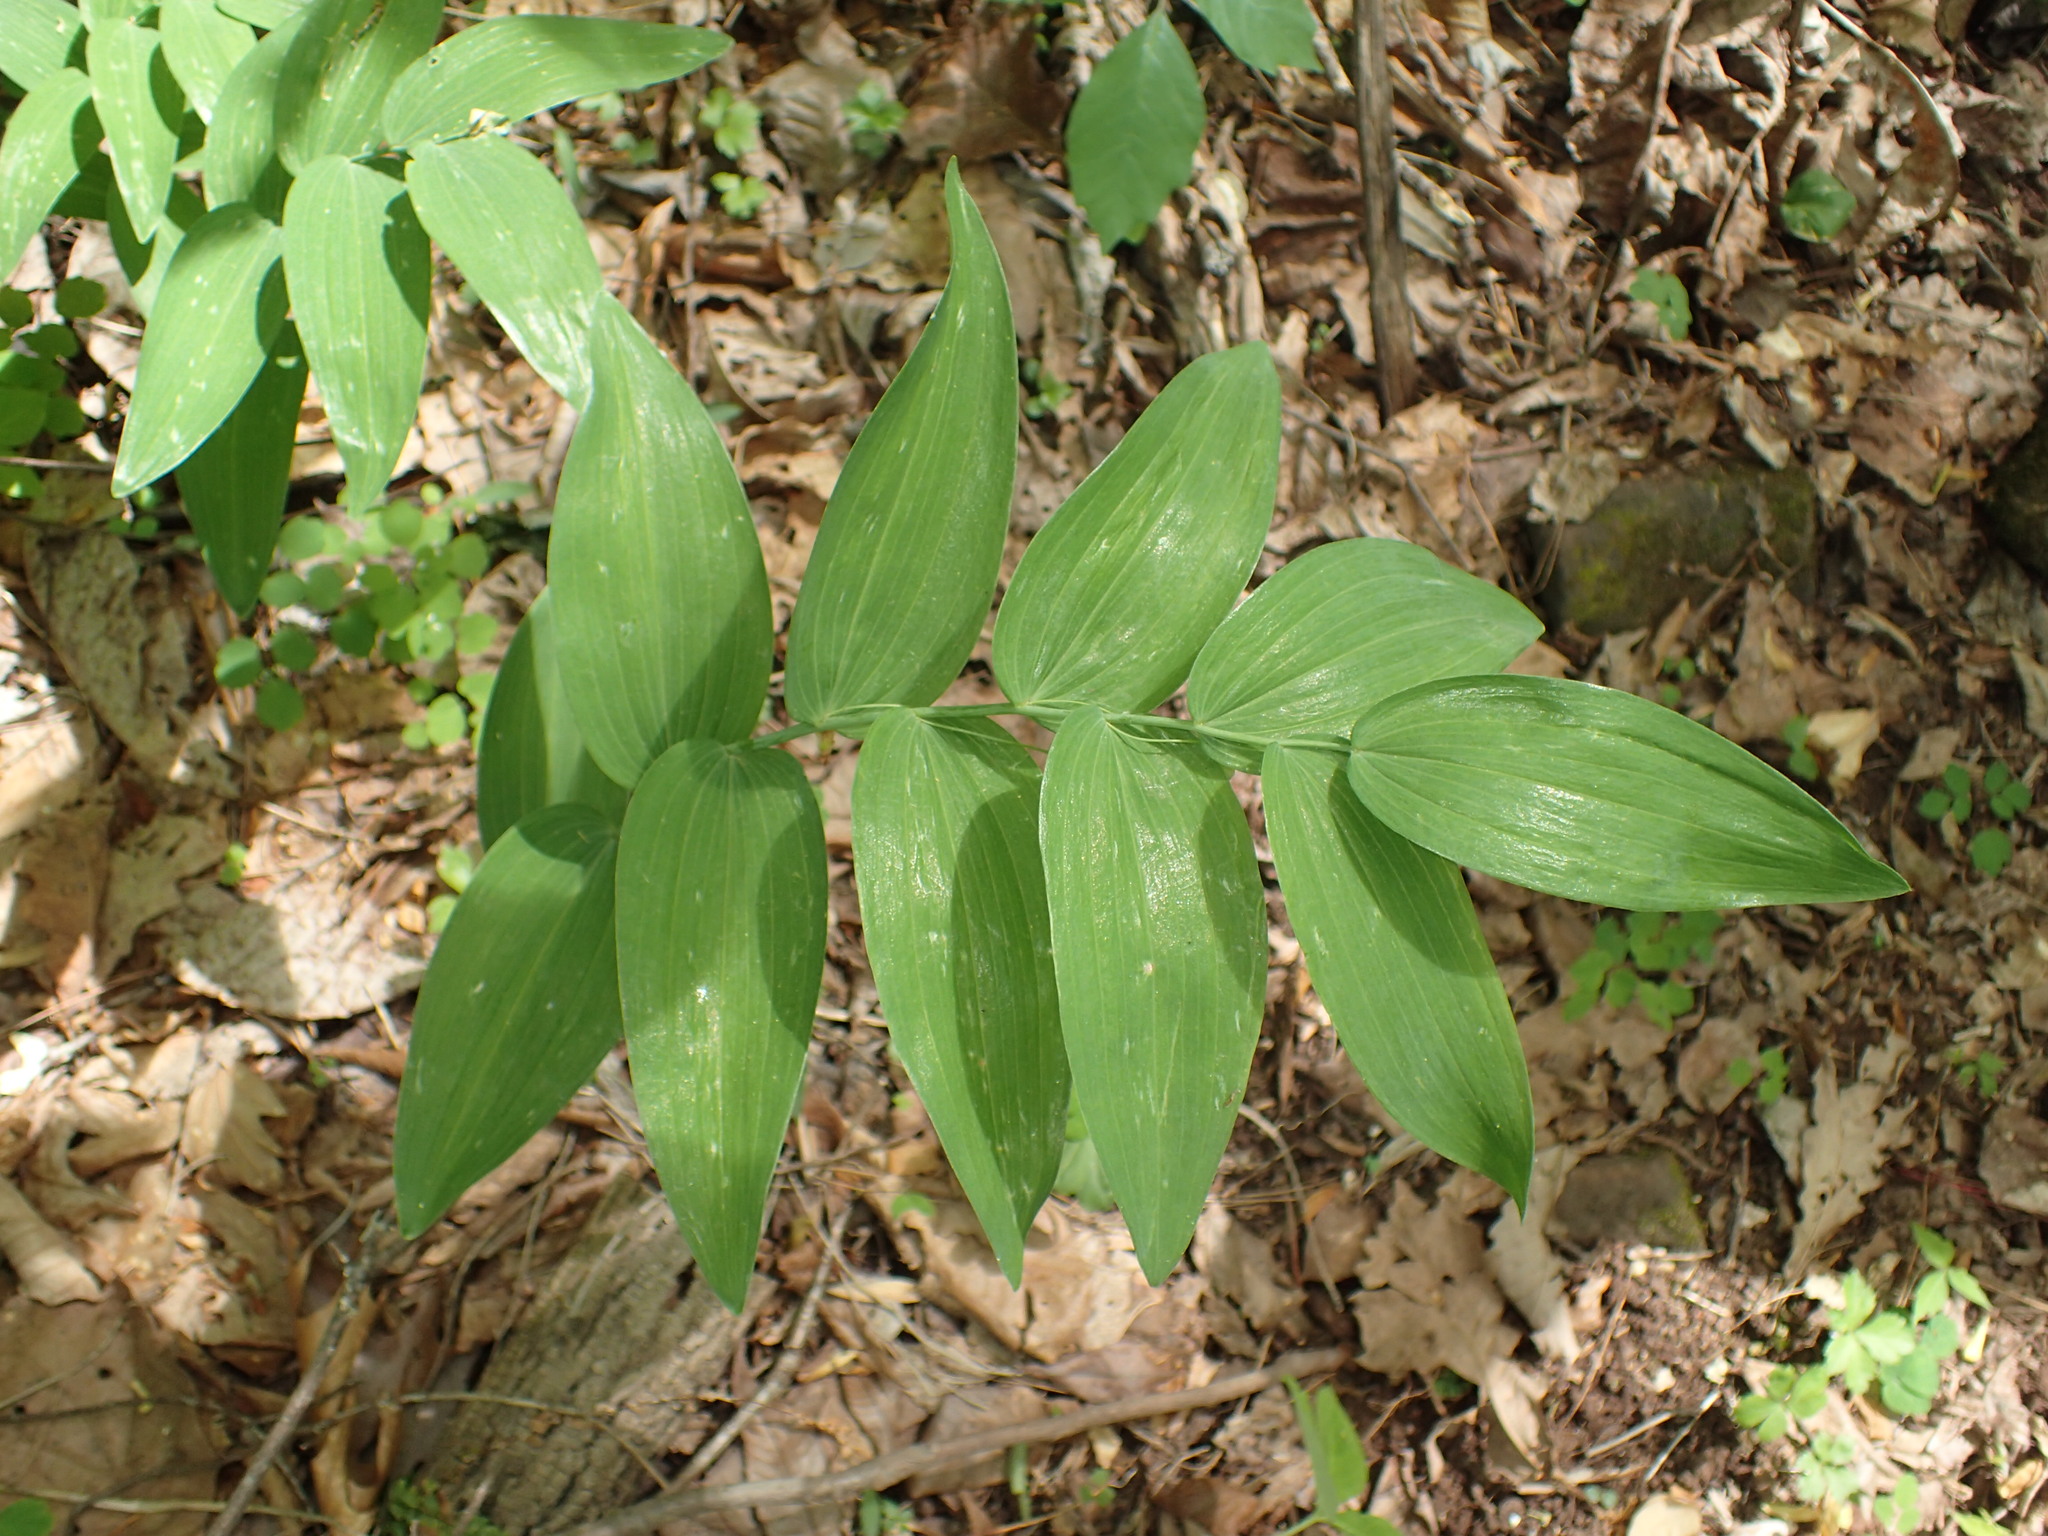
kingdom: Plantae
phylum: Tracheophyta
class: Liliopsida
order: Asparagales
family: Asparagaceae
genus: Polygonatum
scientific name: Polygonatum biflorum
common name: American solomon's-seal
